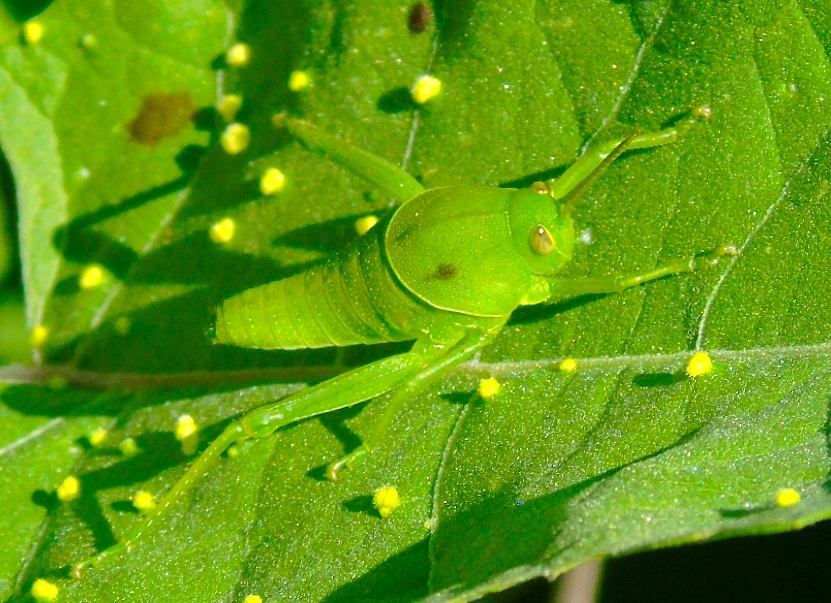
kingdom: Animalia
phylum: Arthropoda
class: Insecta
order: Orthoptera
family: Romaleidae
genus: Brachystola
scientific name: Brachystola behrensii
